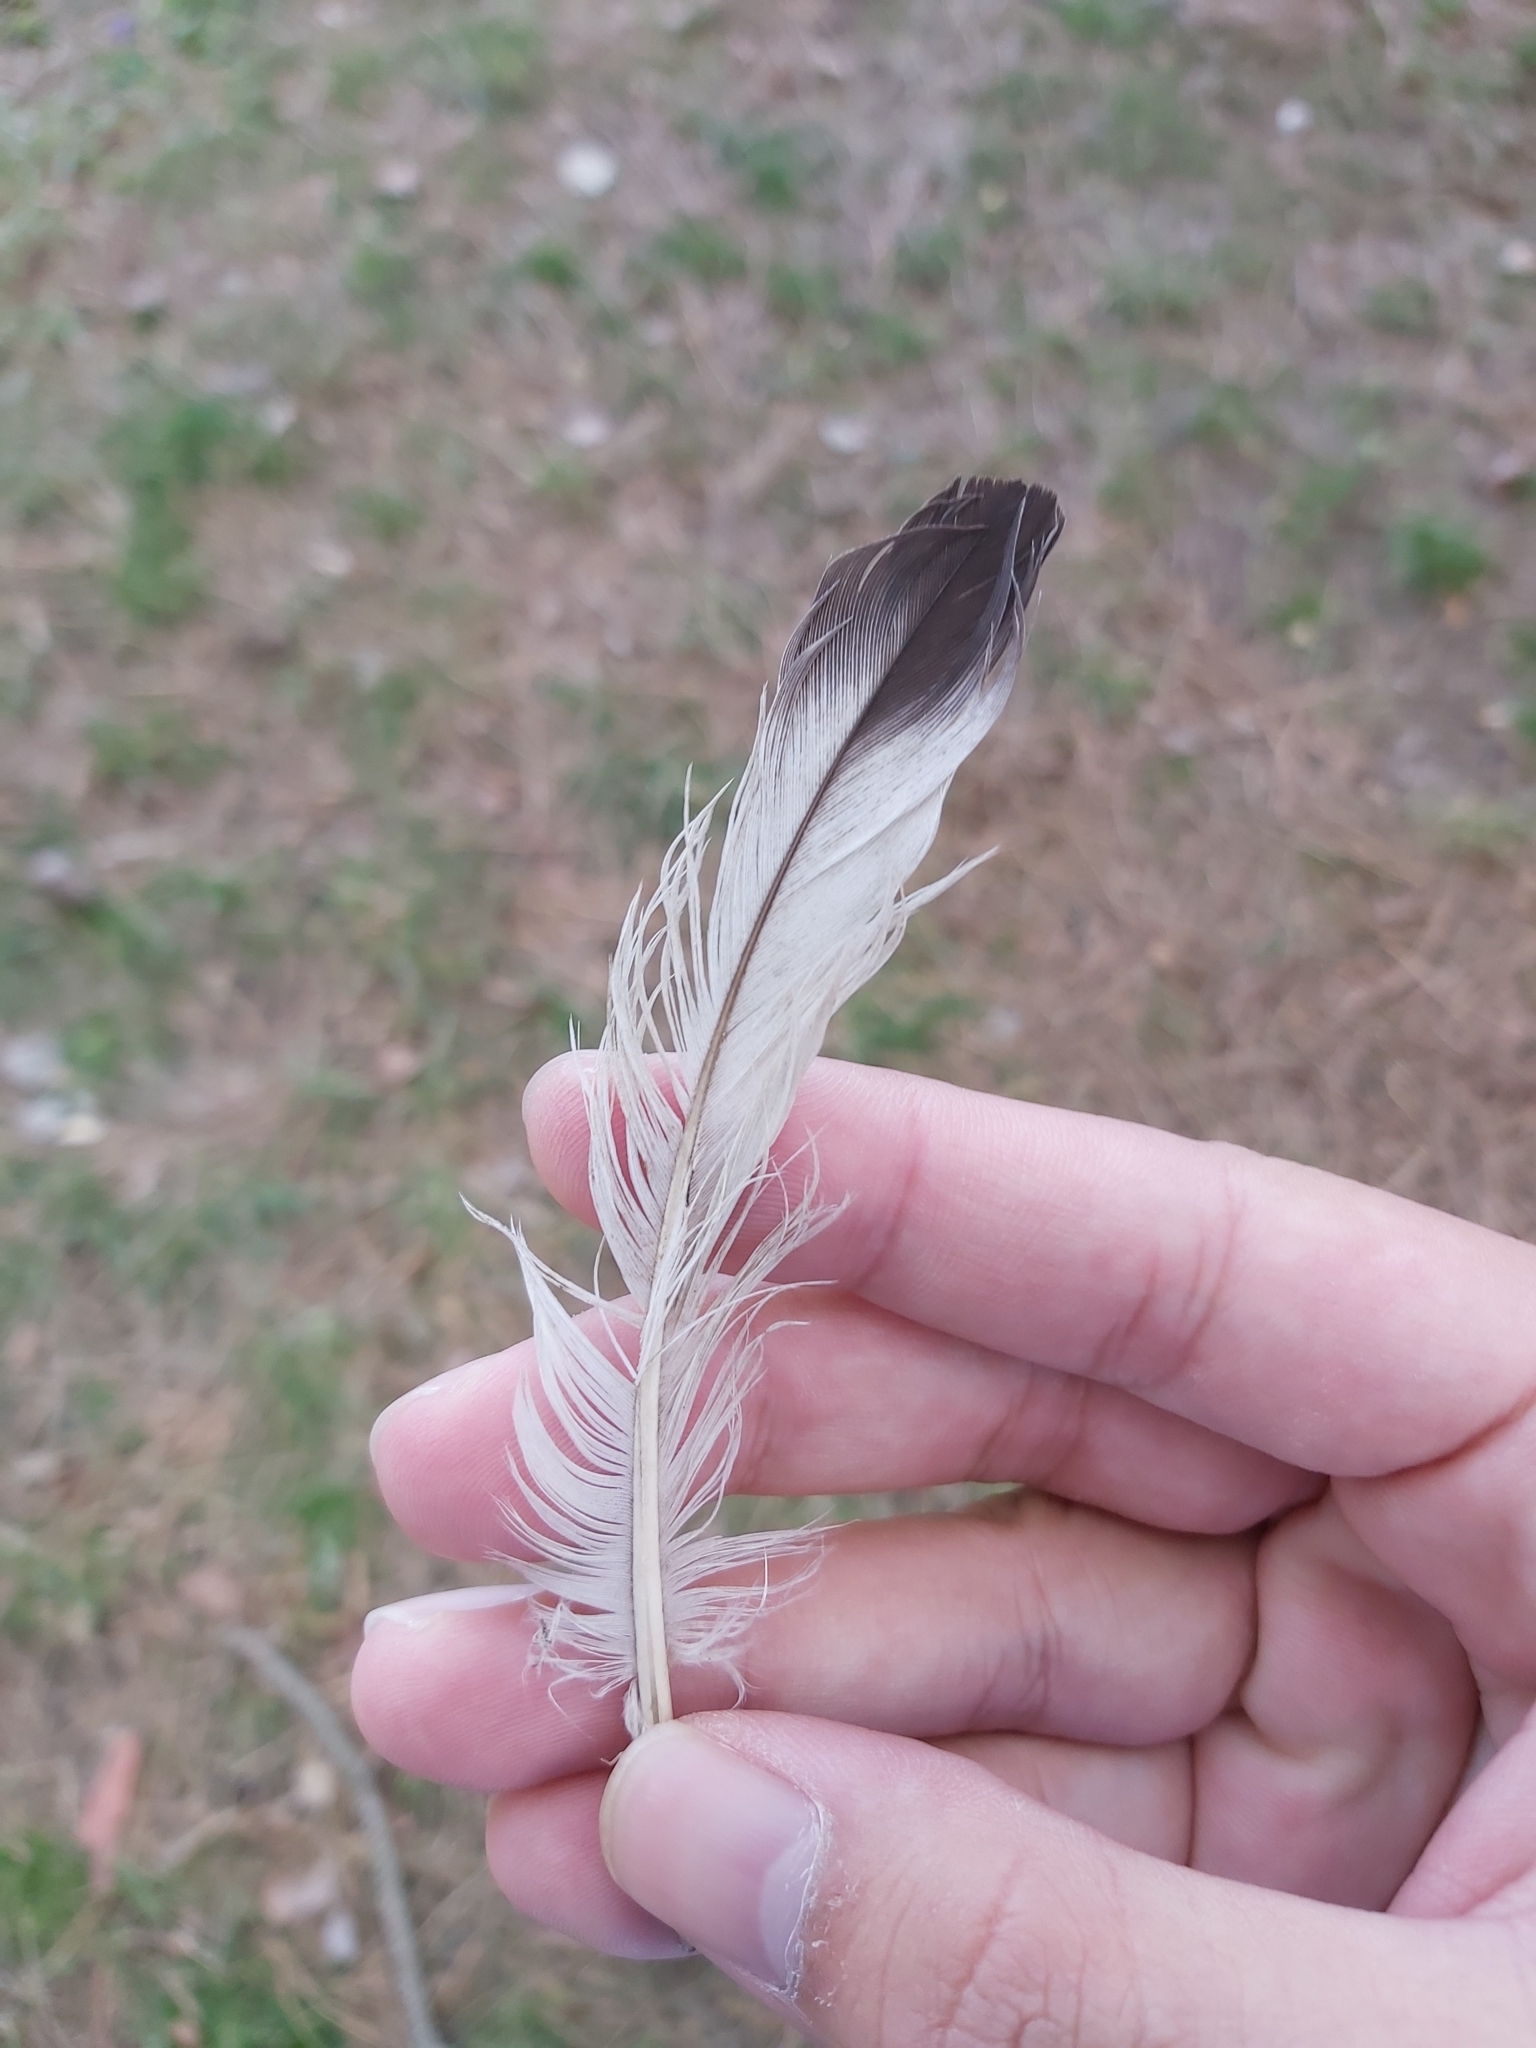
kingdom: Animalia
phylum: Chordata
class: Aves
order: Columbiformes
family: Columbidae
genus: Columba
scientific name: Columba livia
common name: Rock pigeon
